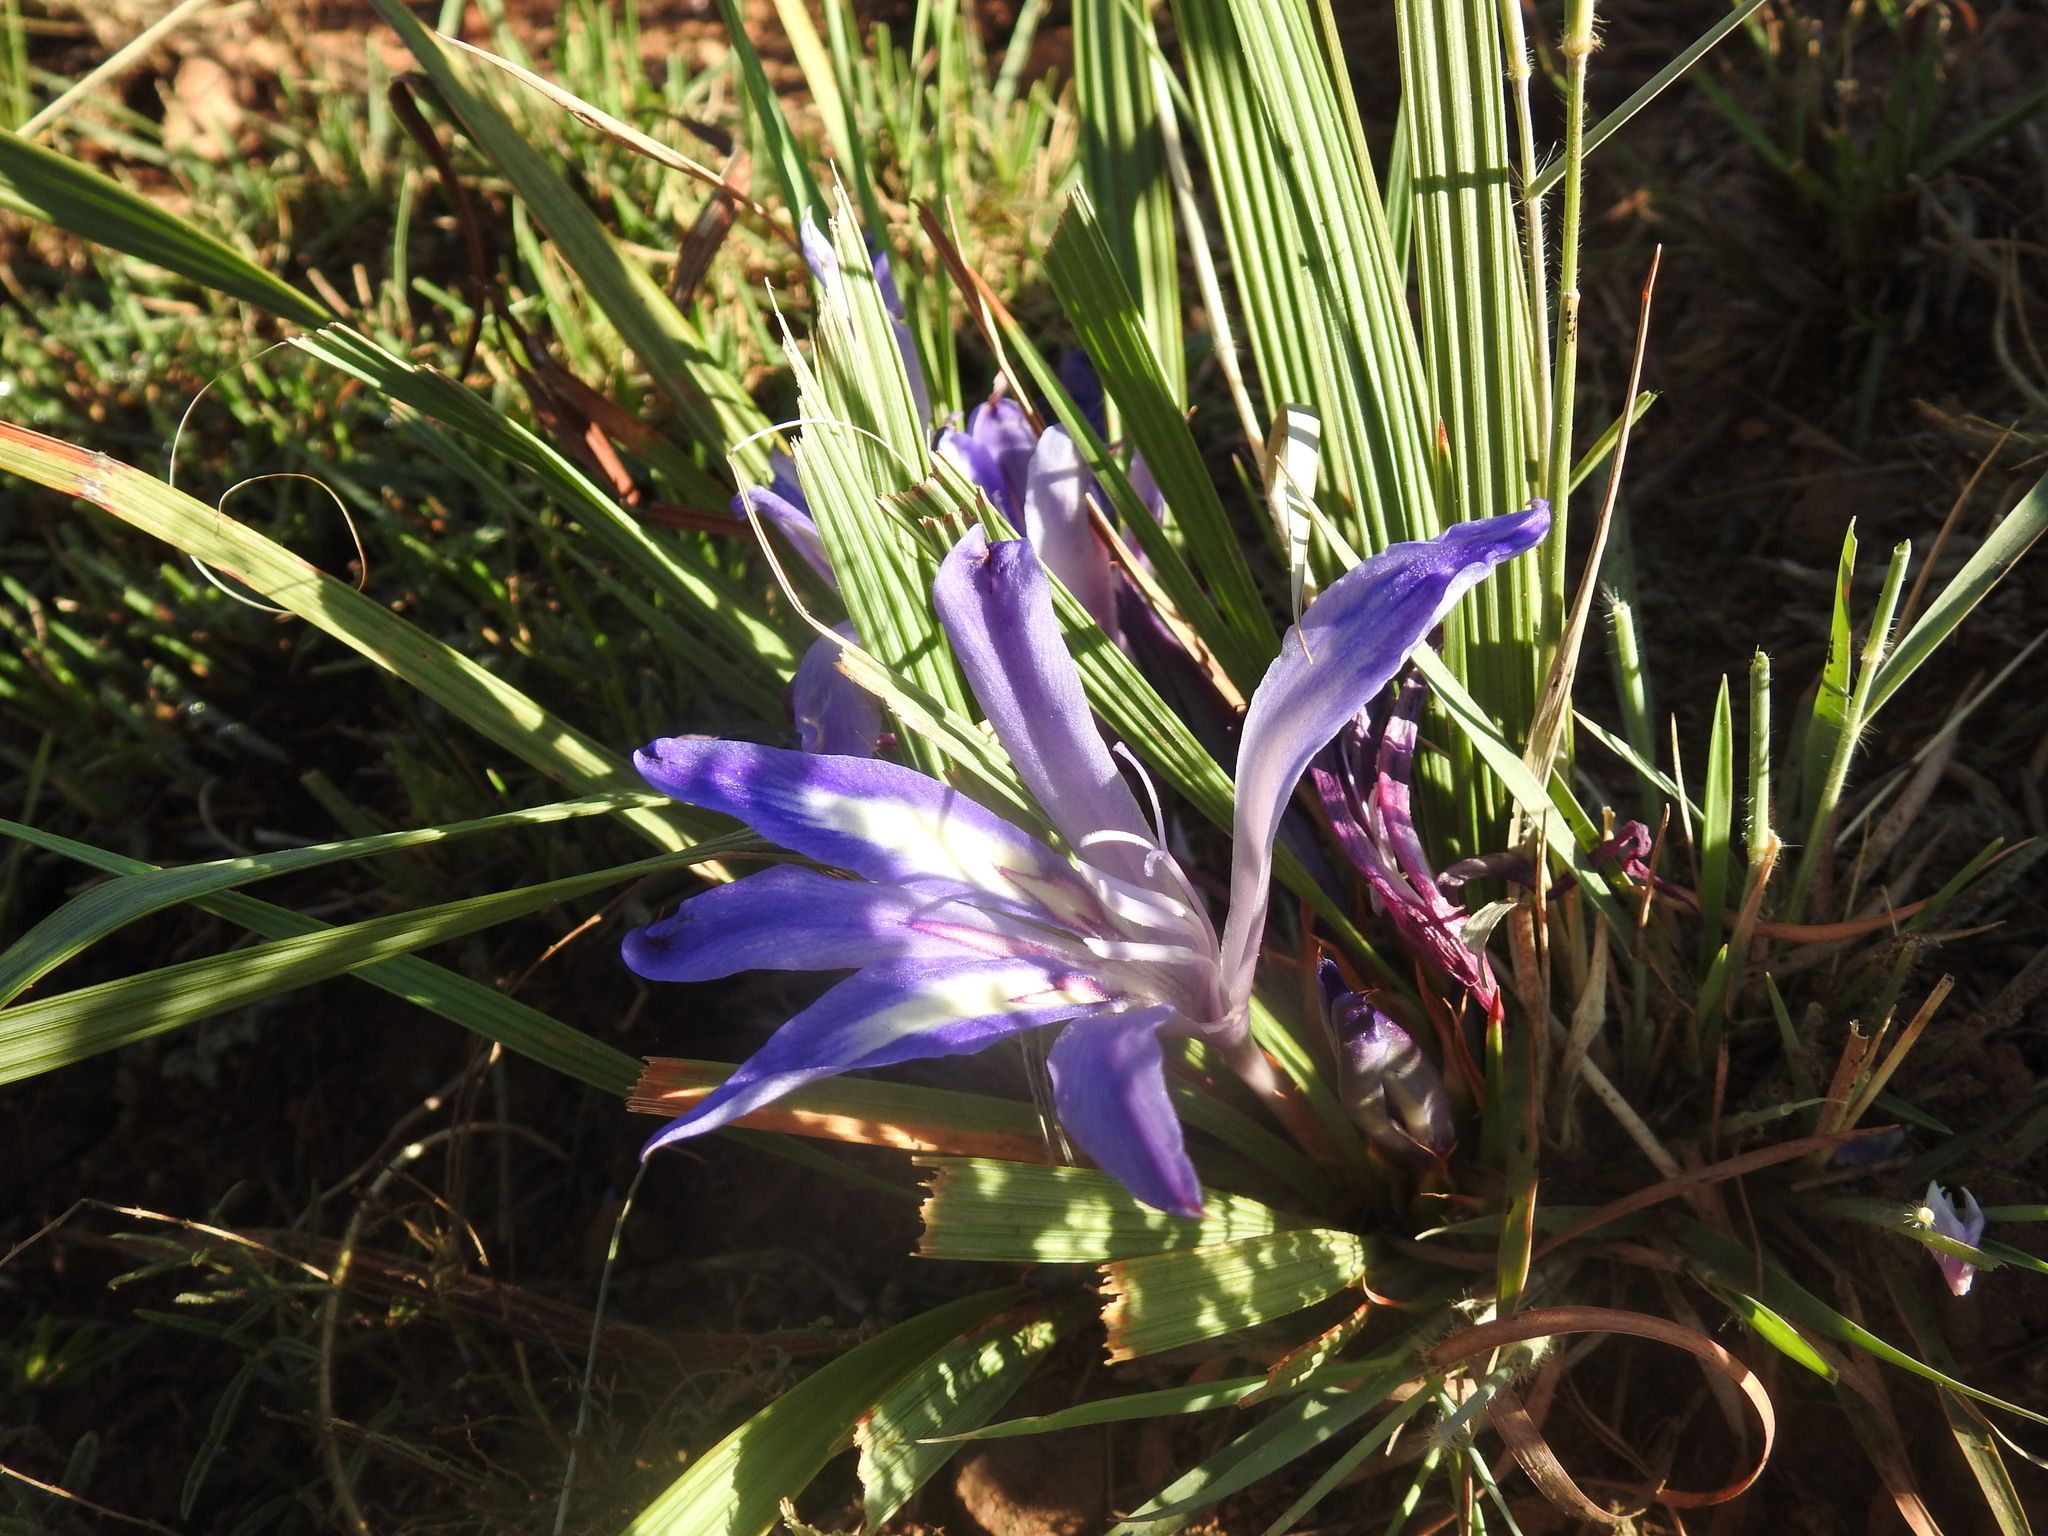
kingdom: Plantae
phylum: Tracheophyta
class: Liliopsida
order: Asparagales
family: Iridaceae
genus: Babiana
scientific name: Babiana bainesii
